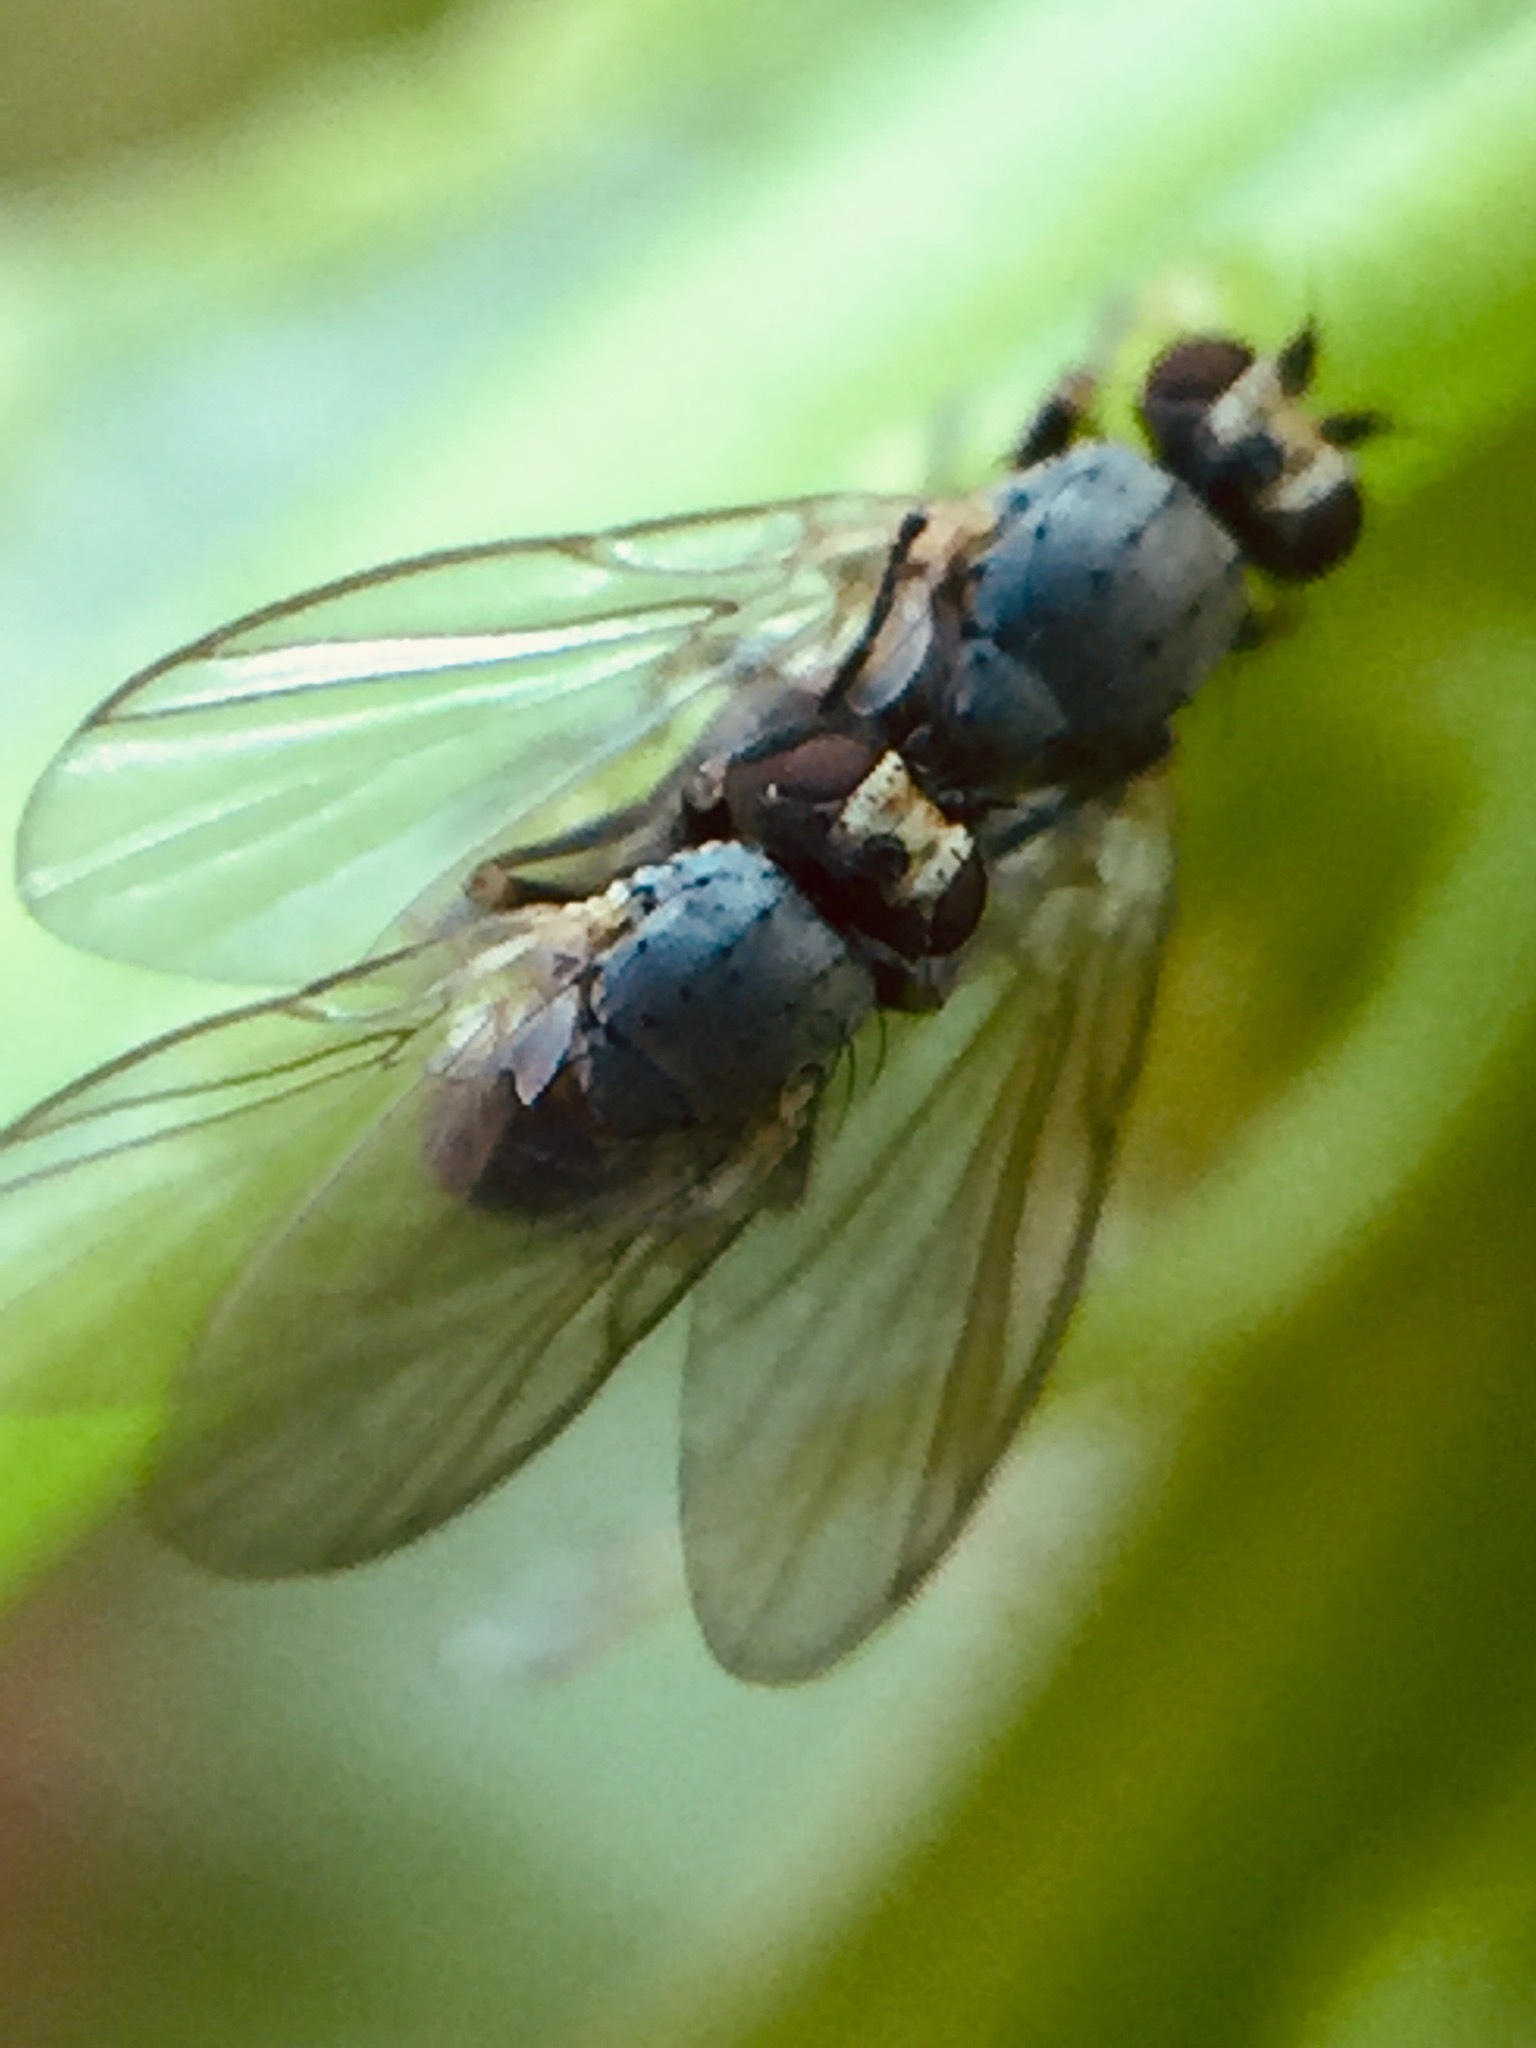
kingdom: Animalia
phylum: Arthropoda
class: Insecta
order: Diptera
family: Agromyzidae
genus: Phytomyza
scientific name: Phytomyza syngenesiae
